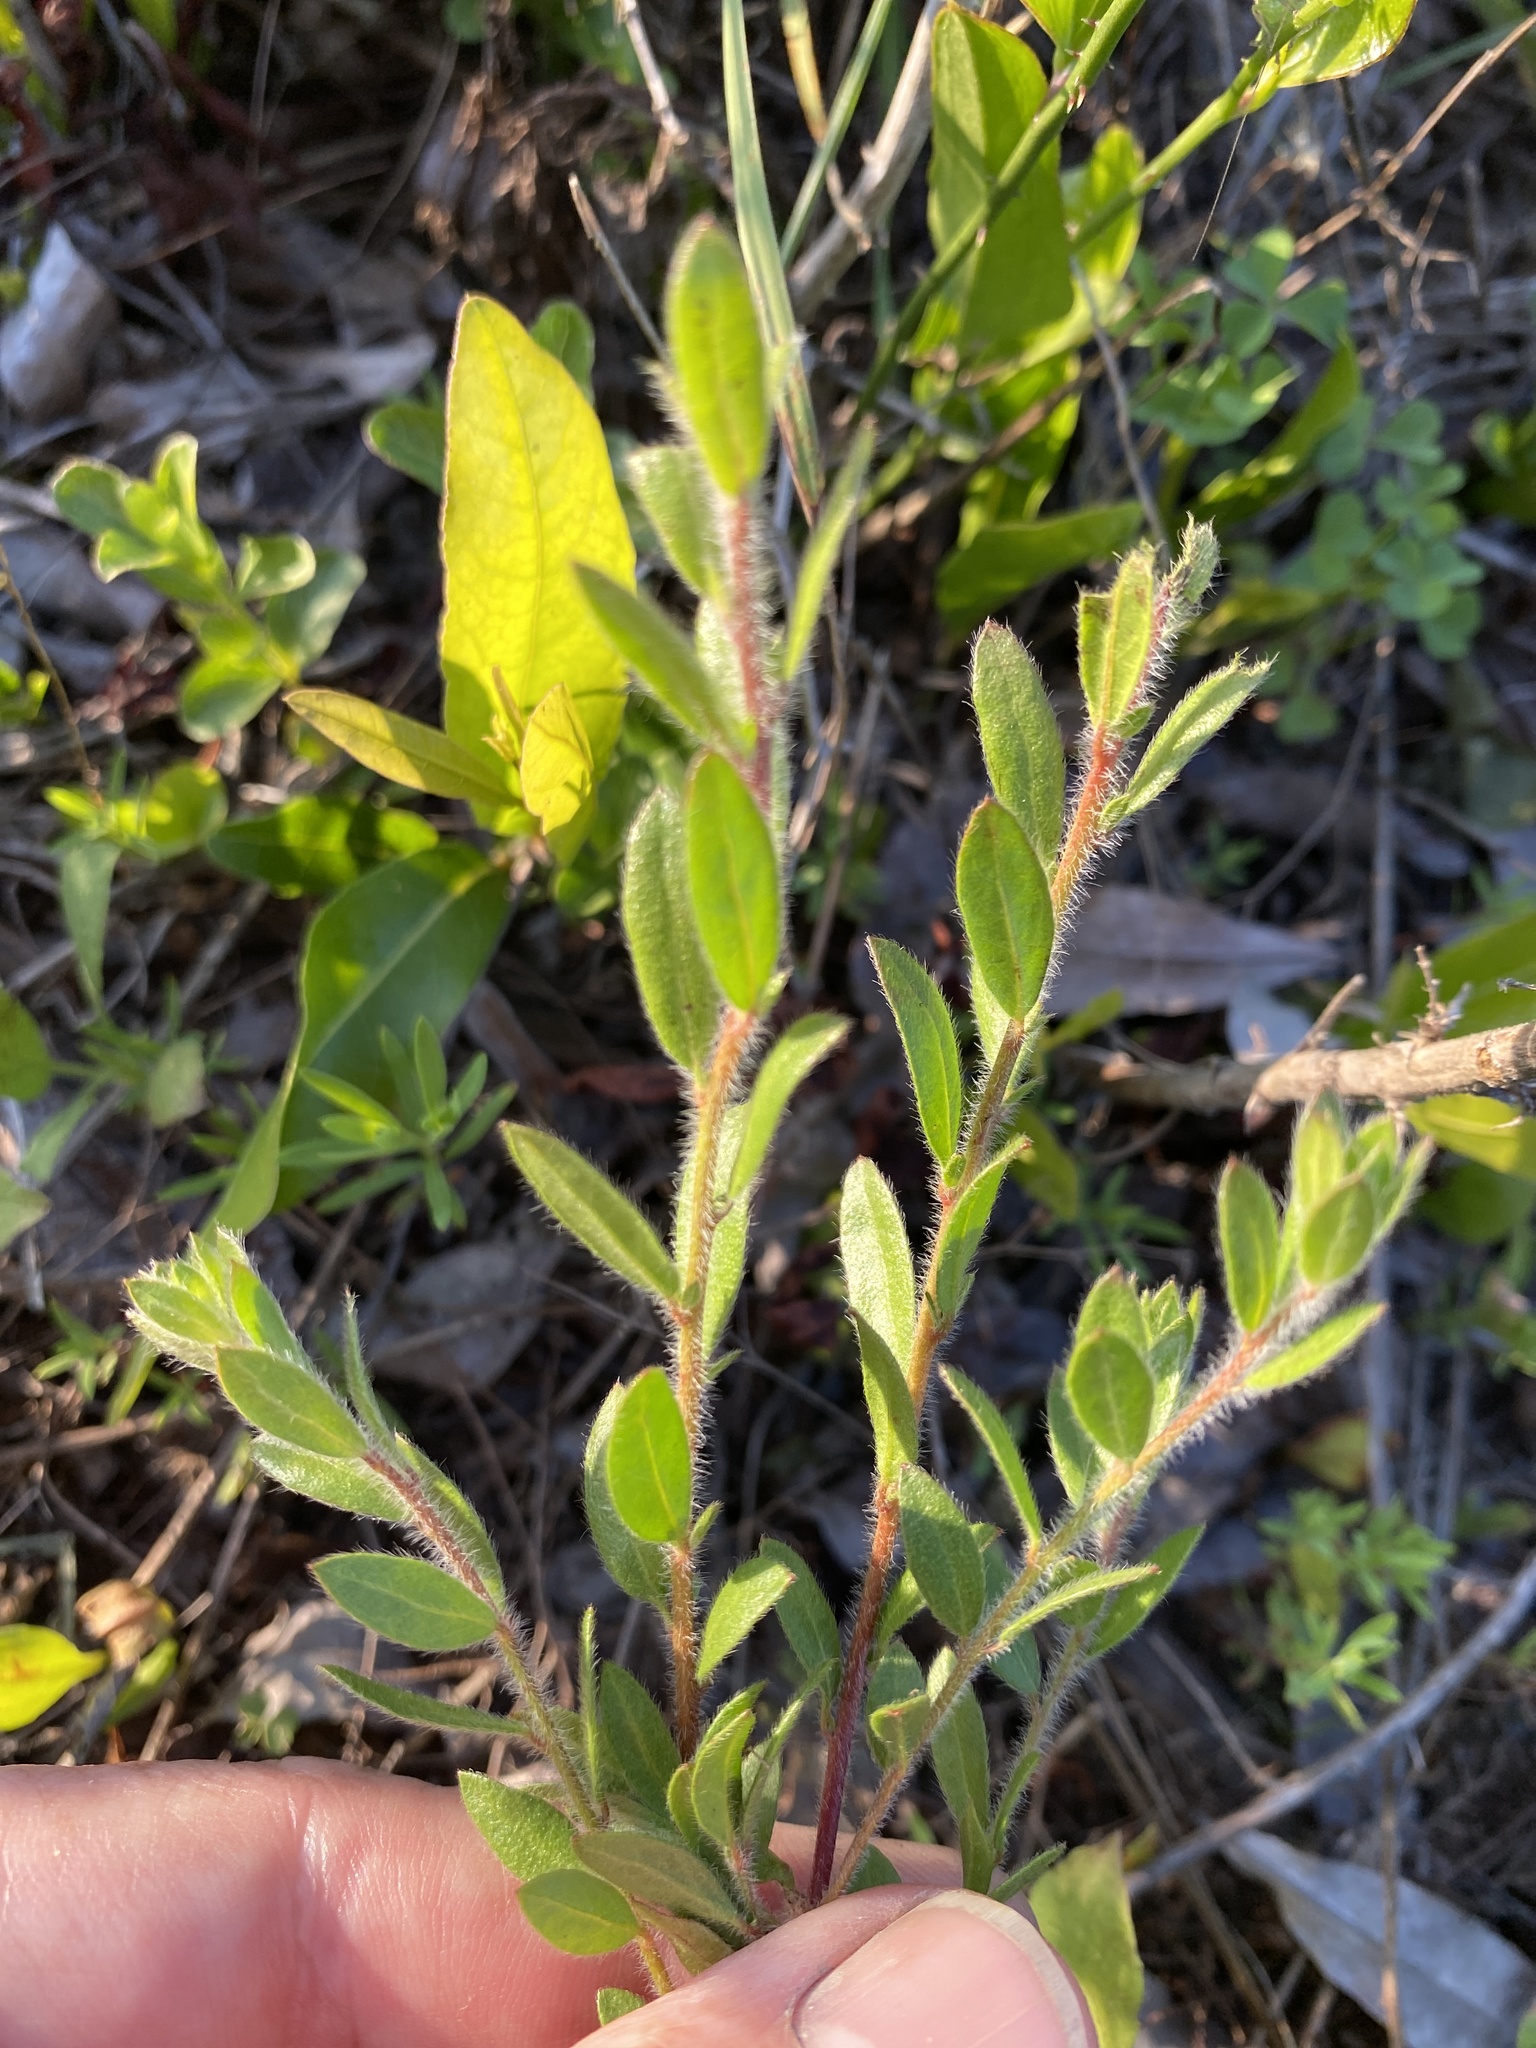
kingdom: Plantae
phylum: Tracheophyta
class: Magnoliopsida
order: Malvales
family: Cistaceae
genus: Lechea
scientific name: Lechea mucronata
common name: Hairy pinweed
